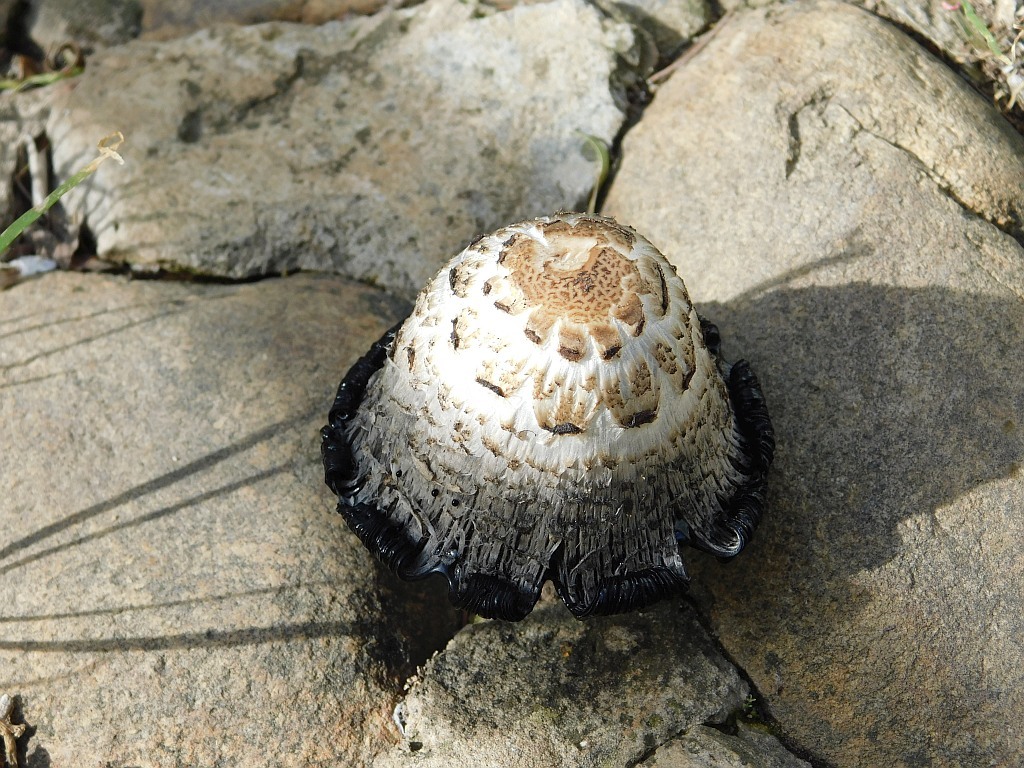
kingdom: Fungi
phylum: Basidiomycota
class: Agaricomycetes
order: Agaricales
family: Agaricaceae
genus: Coprinus
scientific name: Coprinus comatus
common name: Lawyer's wig
